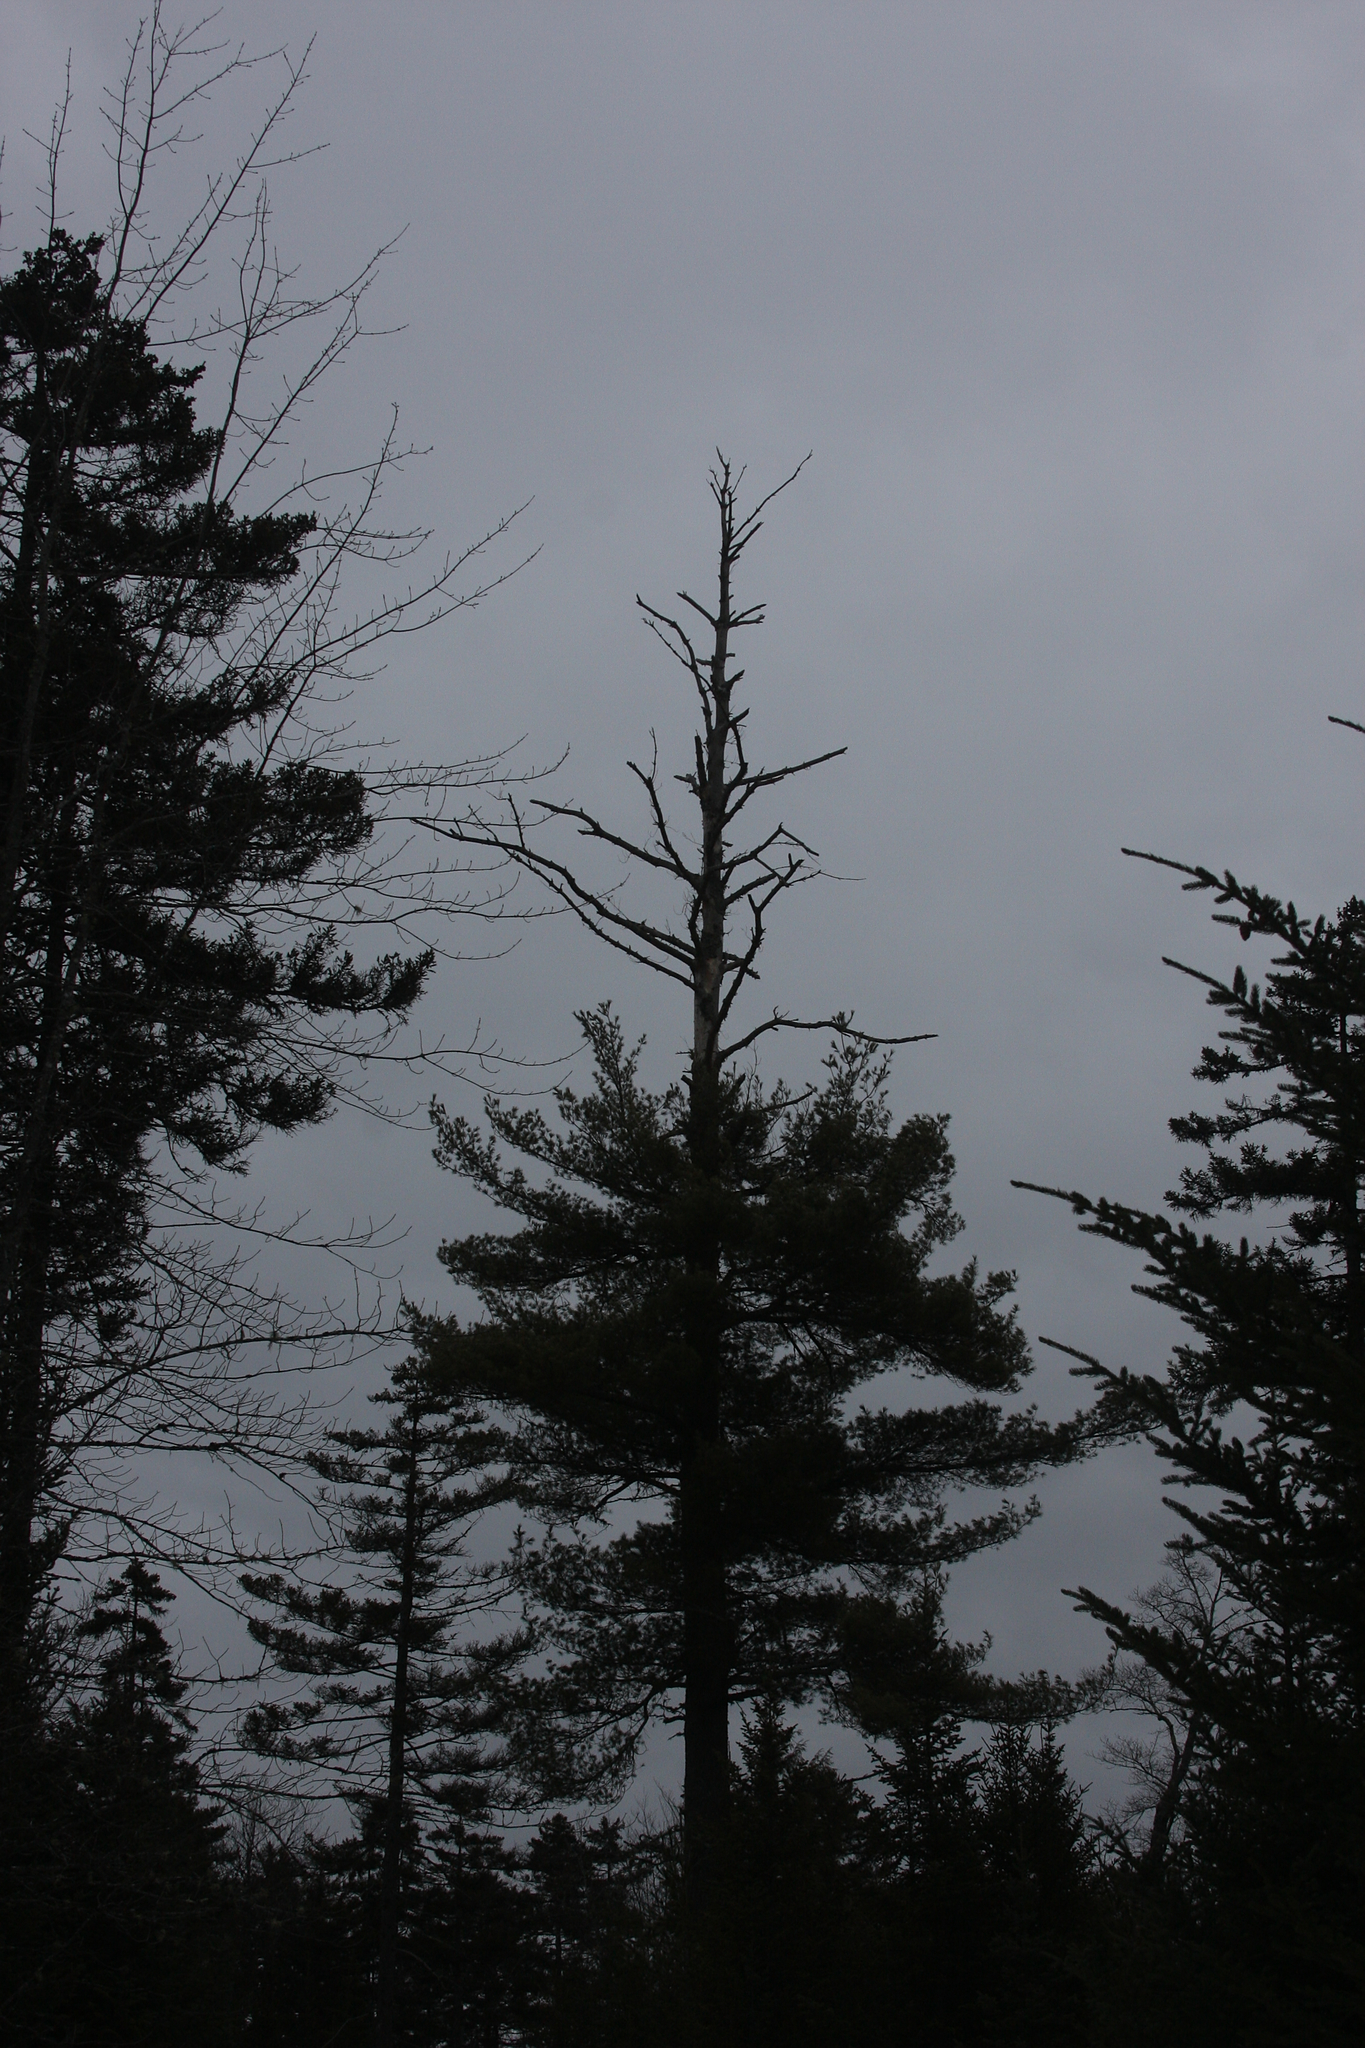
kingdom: Plantae
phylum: Tracheophyta
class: Pinopsida
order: Pinales
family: Pinaceae
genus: Pinus
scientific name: Pinus strobus
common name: Weymouth pine
